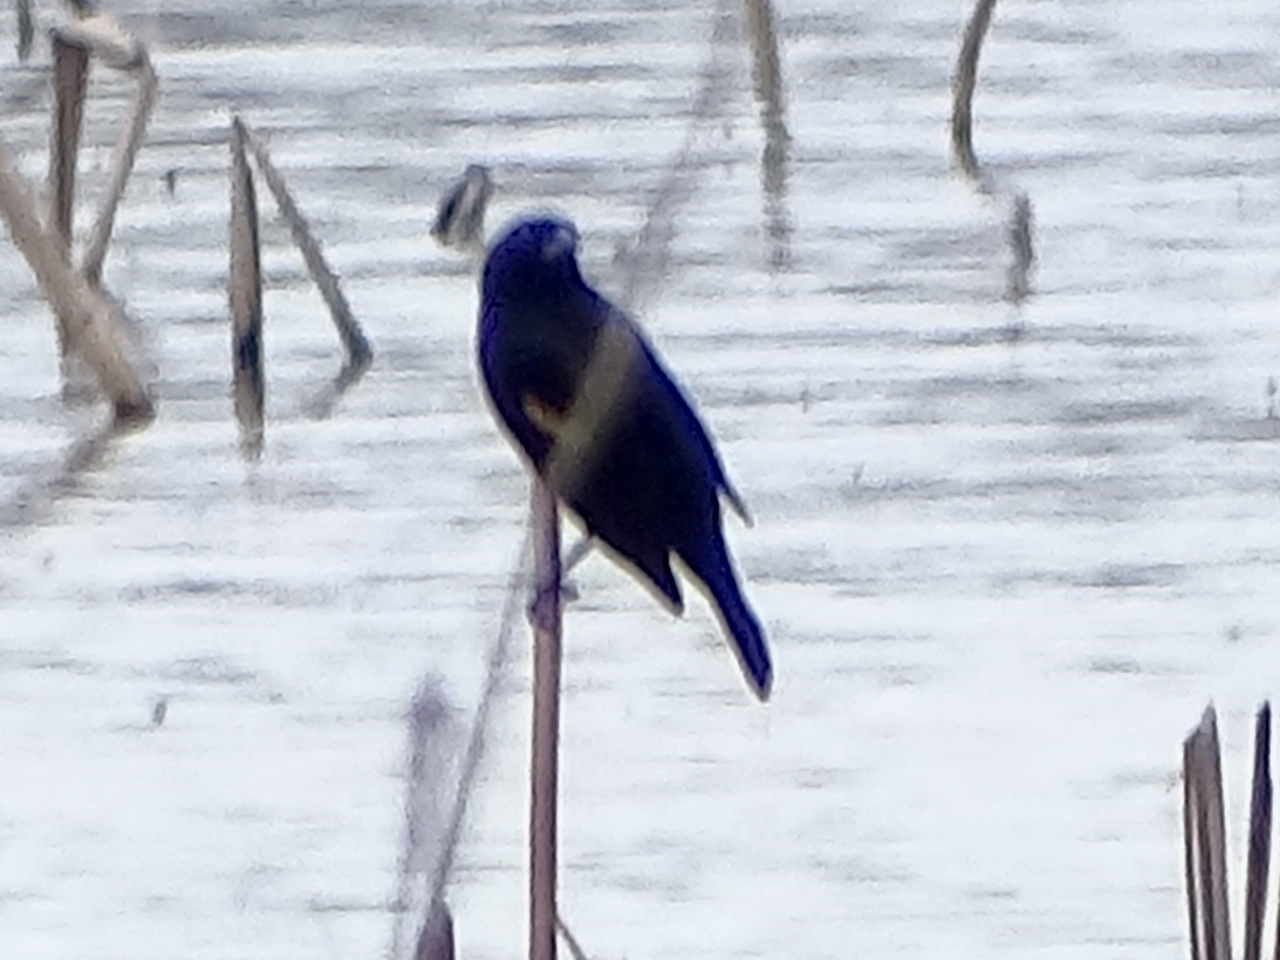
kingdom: Animalia
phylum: Chordata
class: Aves
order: Passeriformes
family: Icteridae
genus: Agelaius
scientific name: Agelaius phoeniceus
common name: Red-winged blackbird
